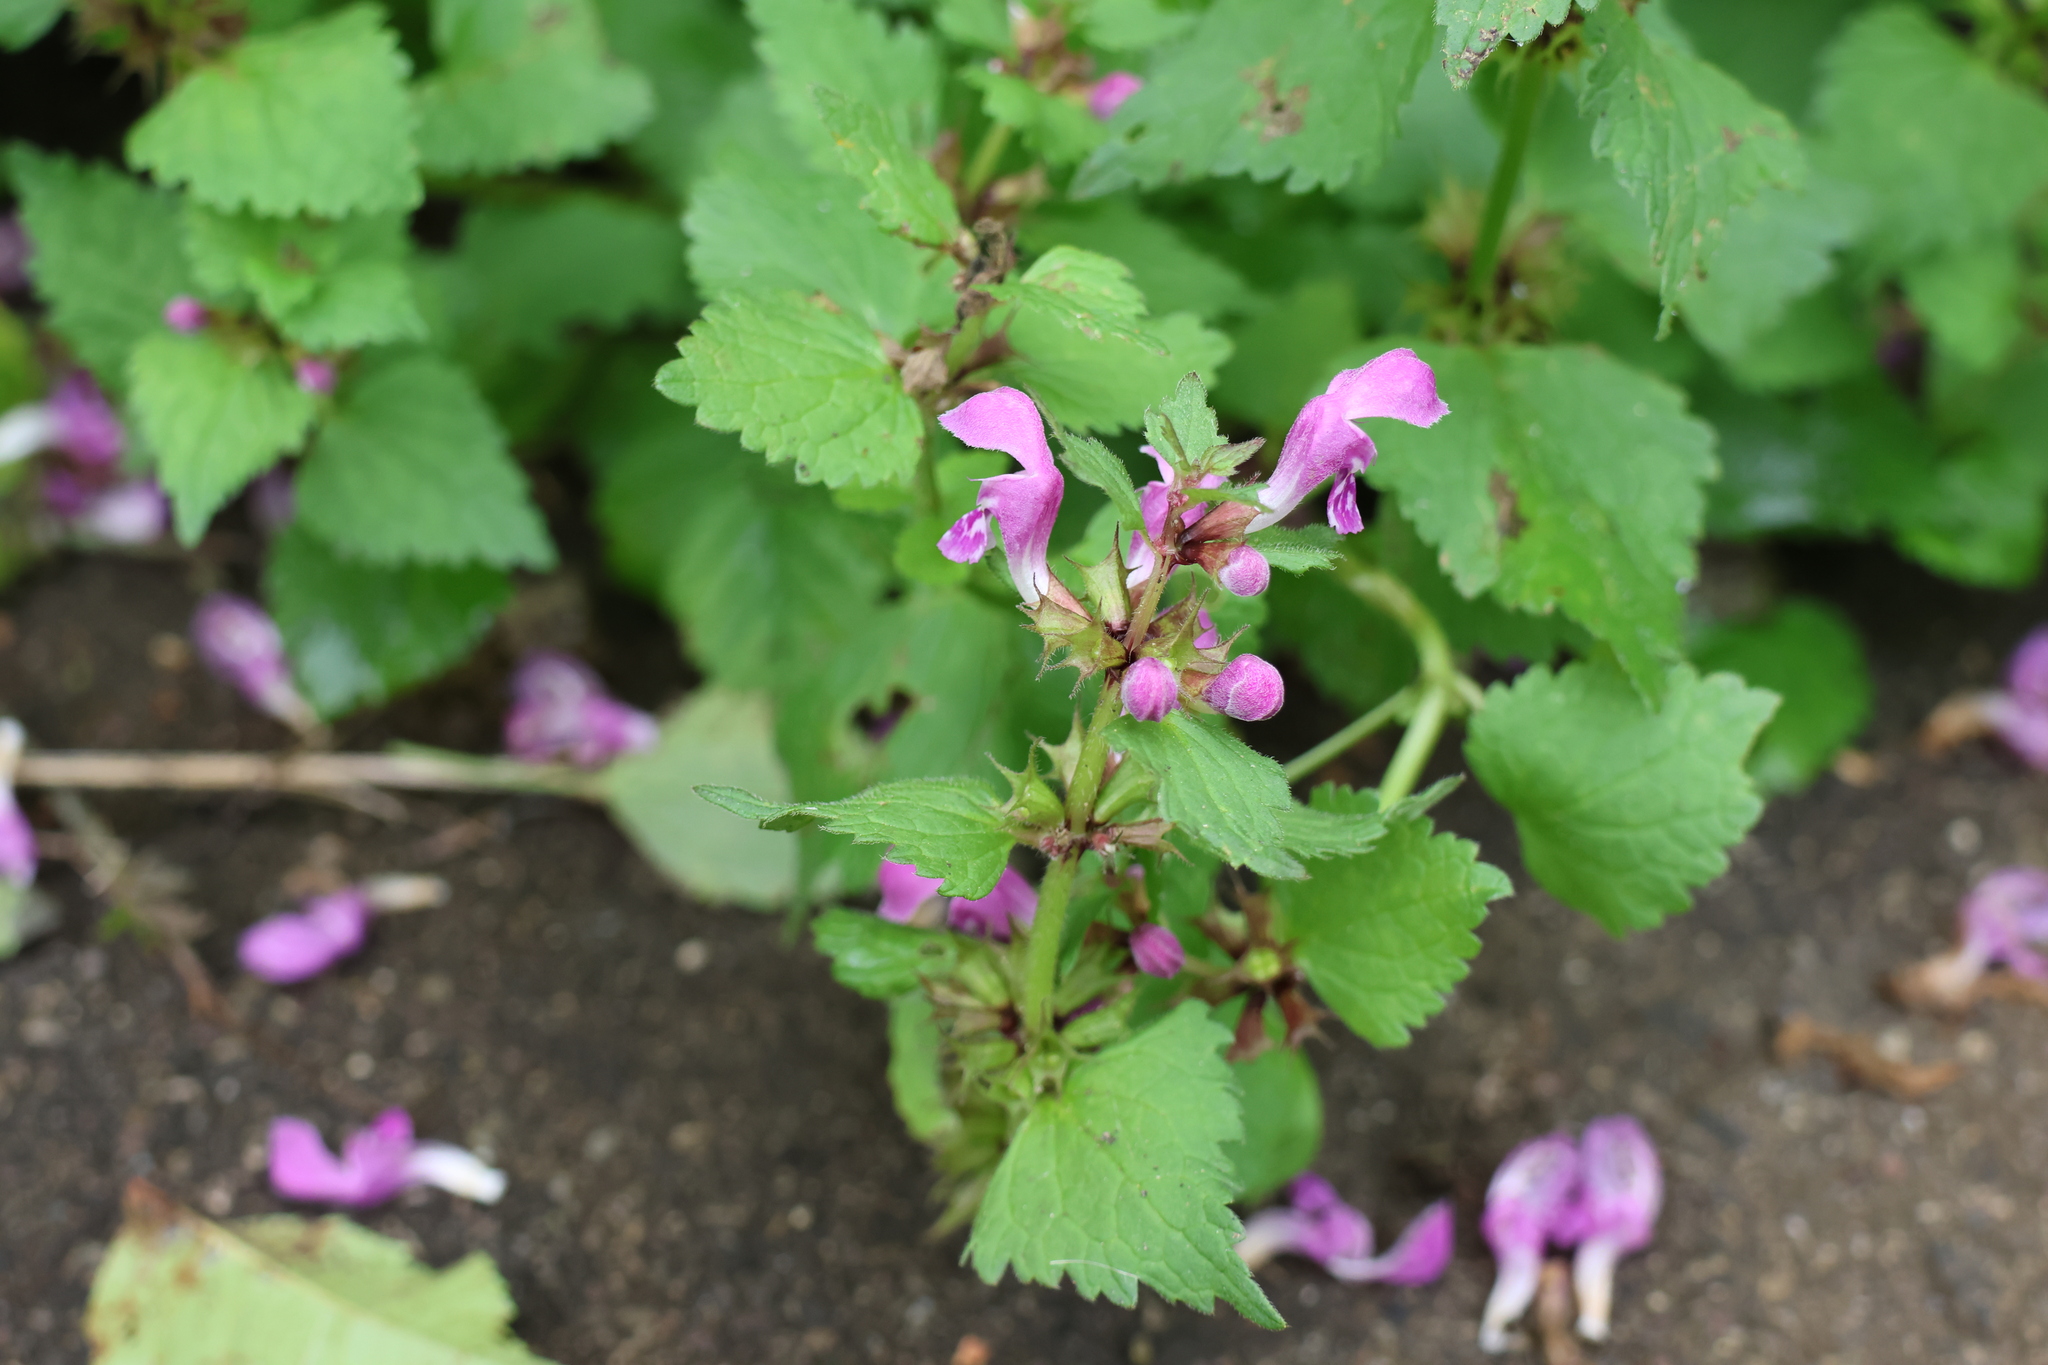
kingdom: Plantae
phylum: Tracheophyta
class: Magnoliopsida
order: Lamiales
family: Lamiaceae
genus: Lamium
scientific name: Lamium maculatum
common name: Spotted dead-nettle
